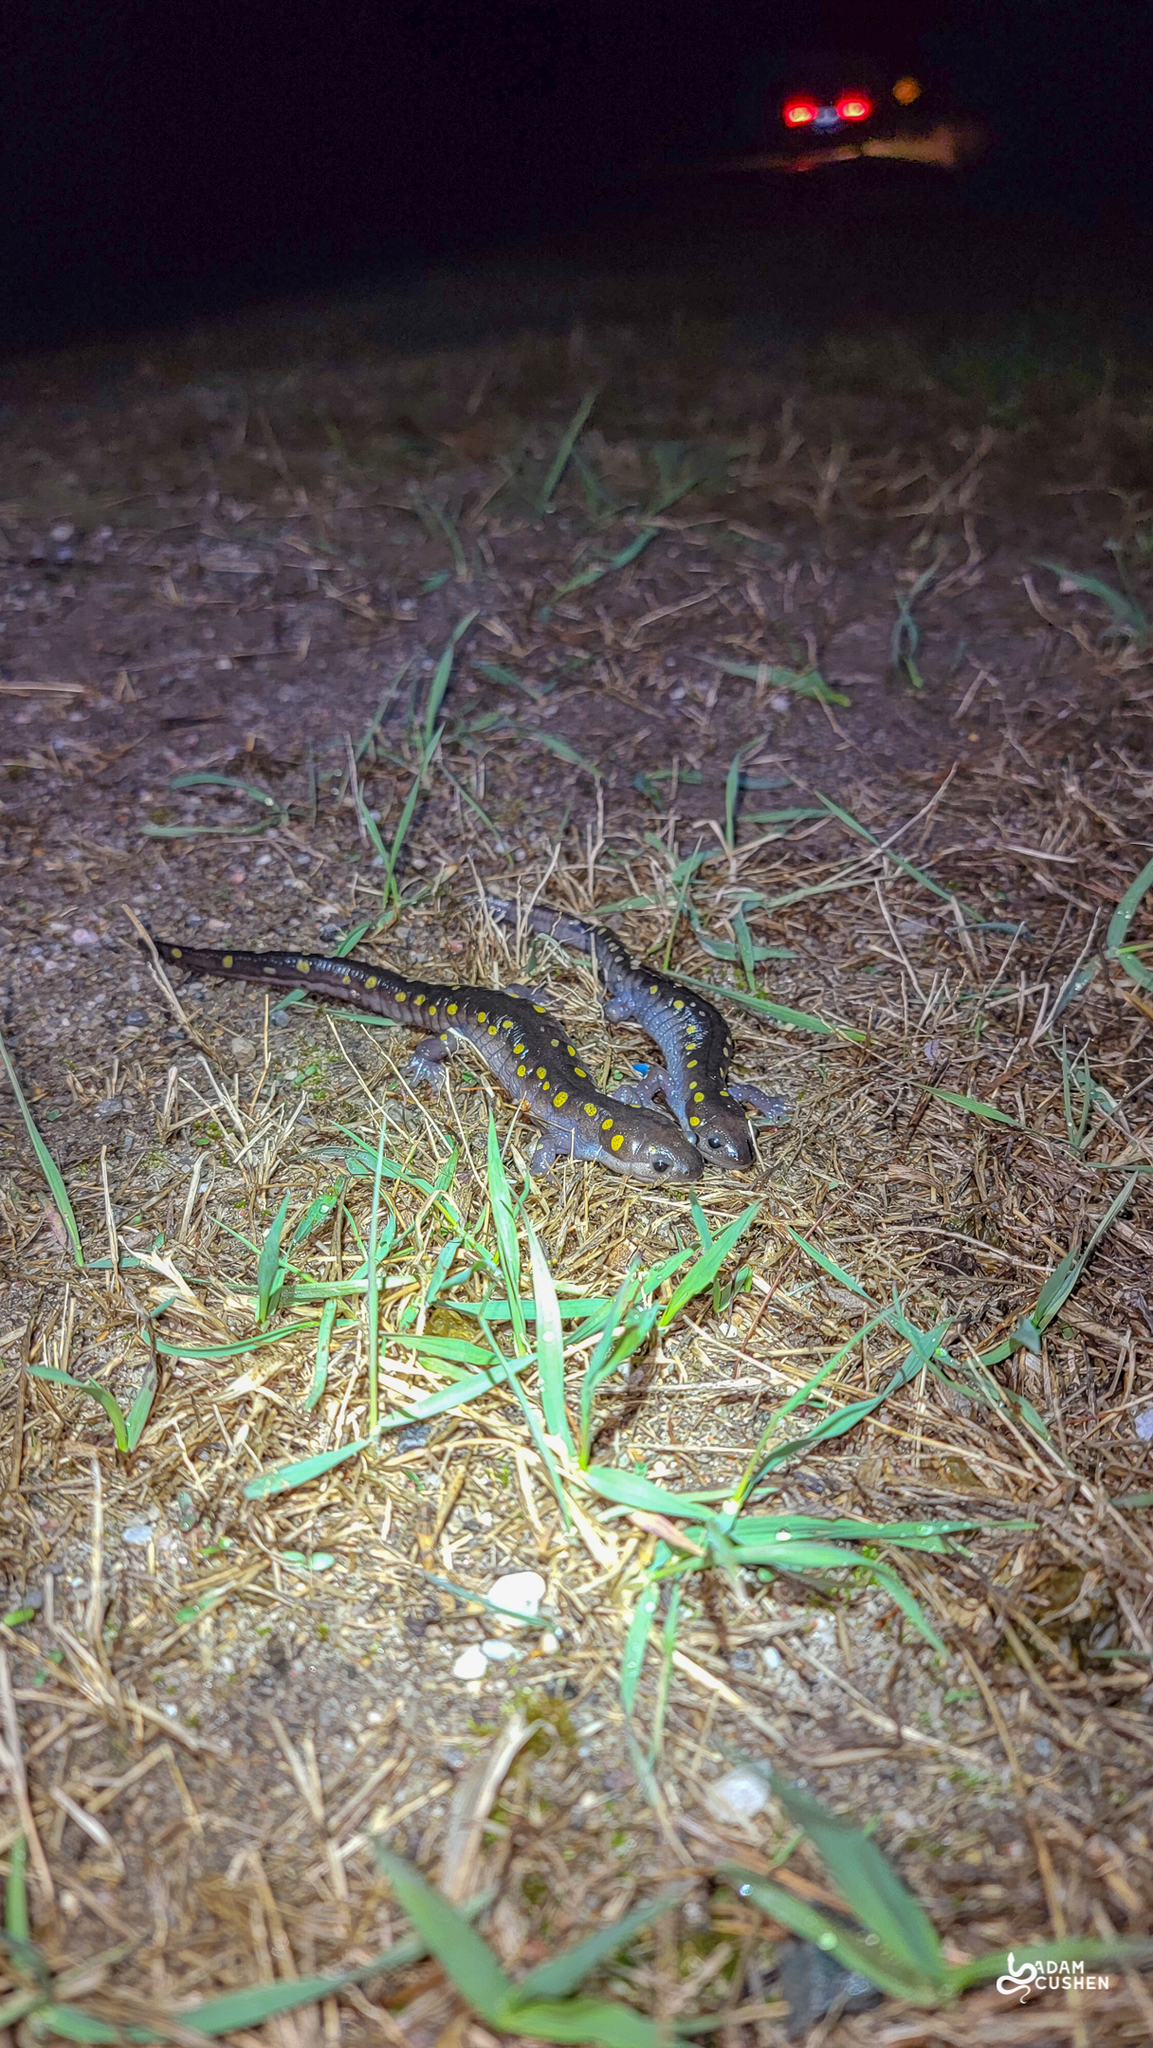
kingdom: Animalia
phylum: Chordata
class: Amphibia
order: Caudata
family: Ambystomatidae
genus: Ambystoma
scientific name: Ambystoma maculatum
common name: Spotted salamander
